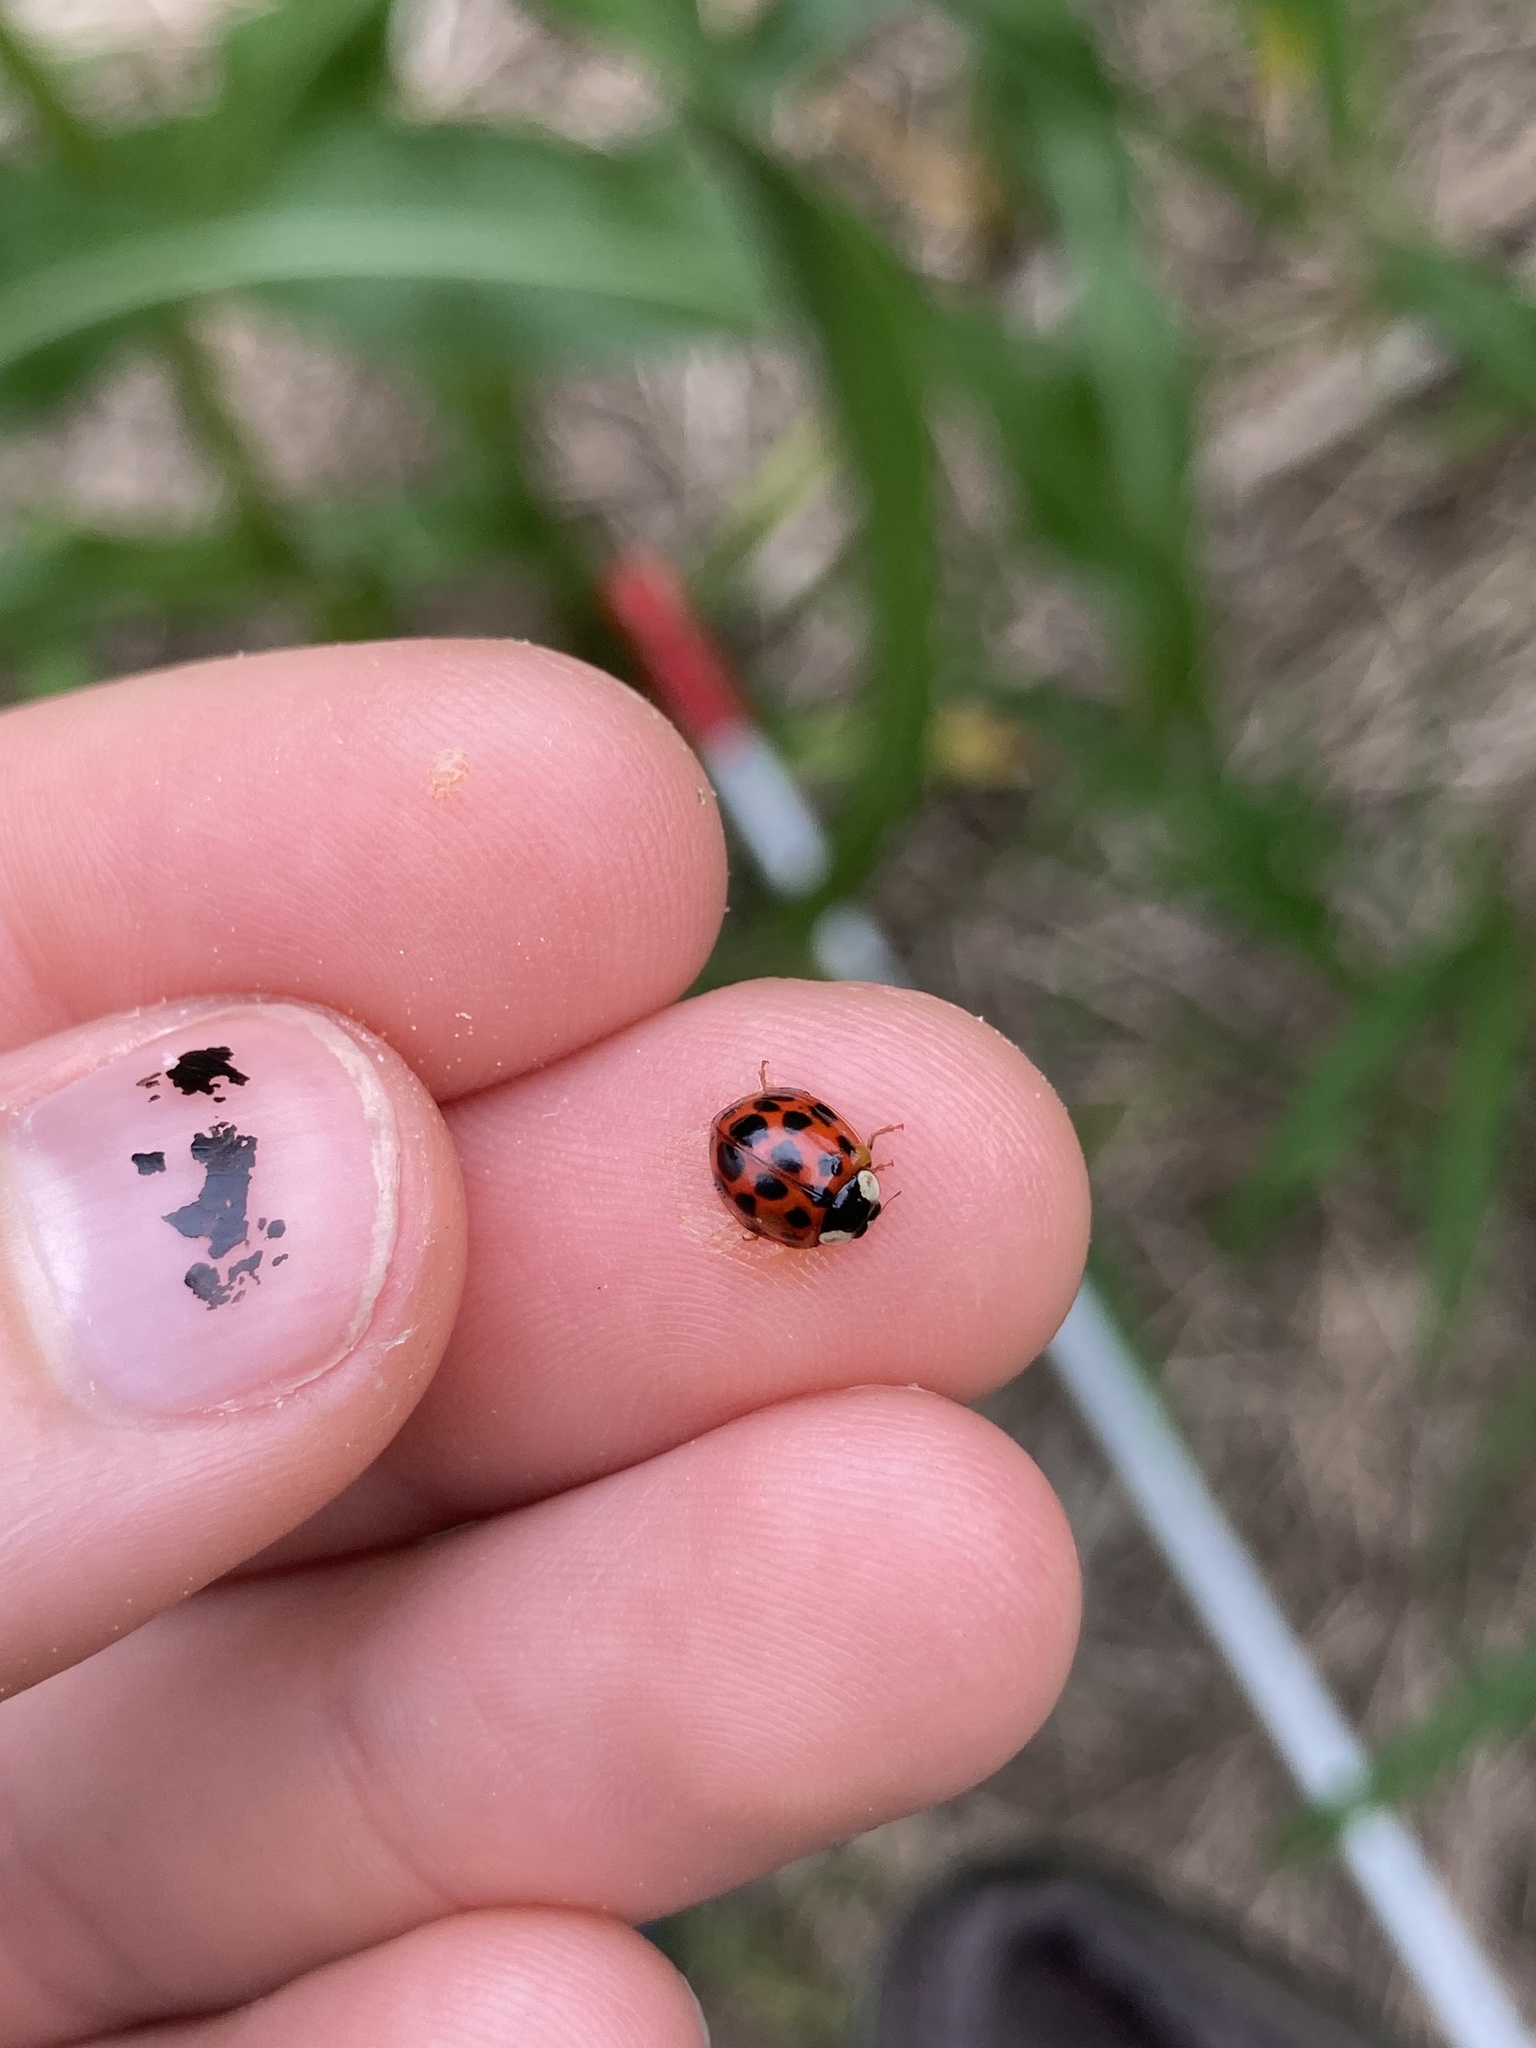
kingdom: Animalia
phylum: Arthropoda
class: Insecta
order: Coleoptera
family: Coccinellidae
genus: Harmonia
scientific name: Harmonia axyridis
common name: Harlequin ladybird
